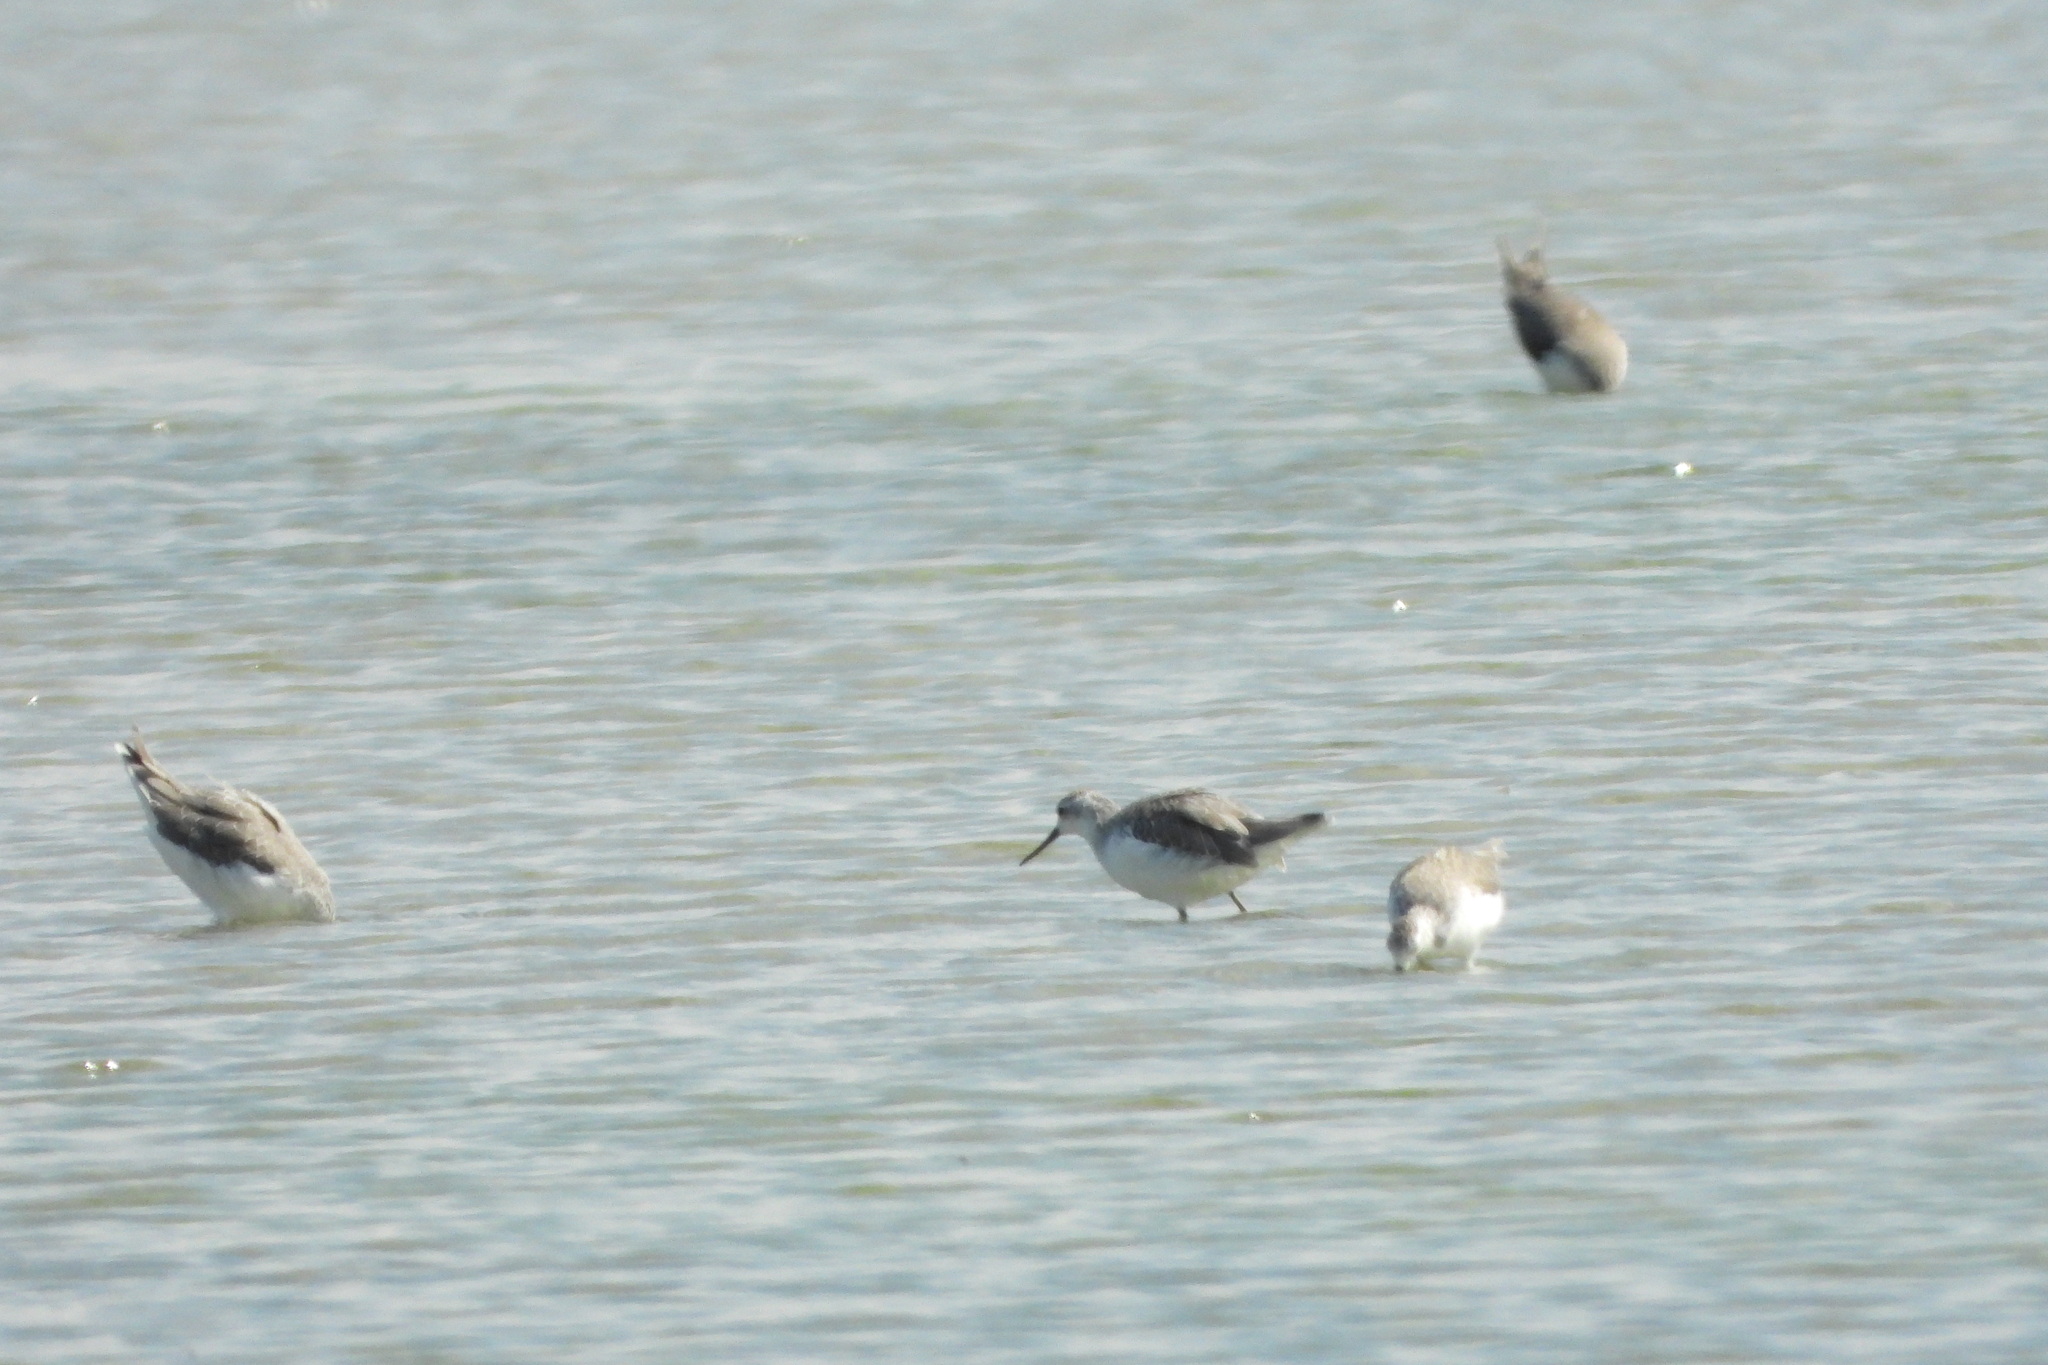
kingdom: Animalia
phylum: Chordata
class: Aves
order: Charadriiformes
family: Scolopacidae
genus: Tringa
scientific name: Tringa stagnatilis
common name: Marsh sandpiper
